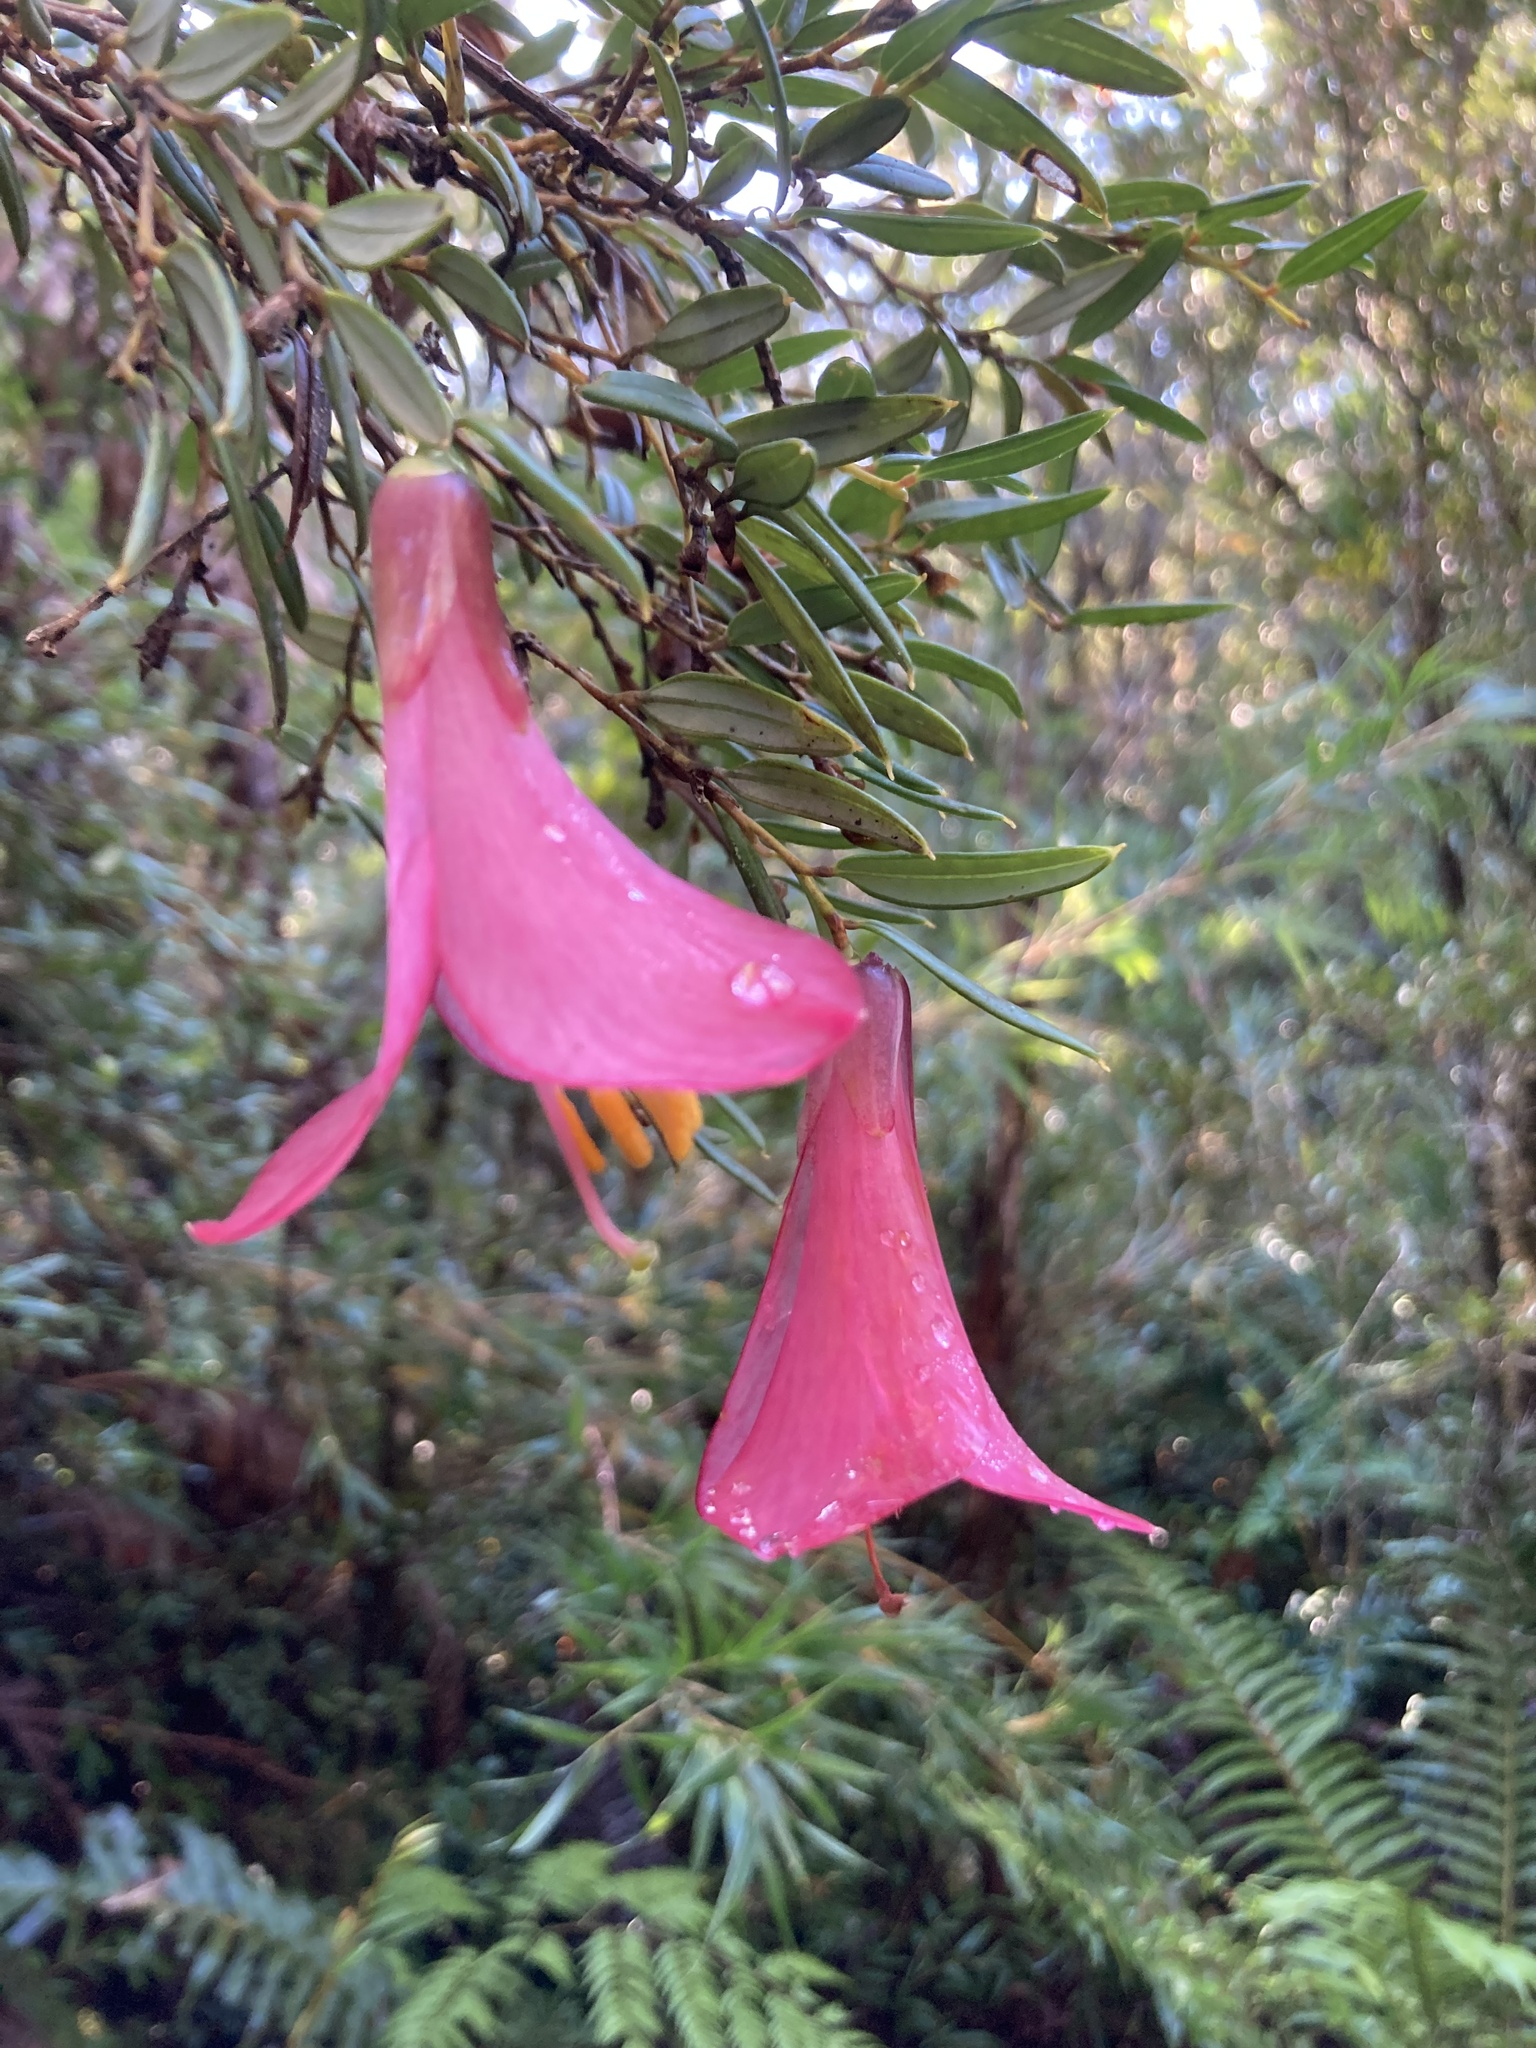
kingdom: Plantae
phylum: Tracheophyta
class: Liliopsida
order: Liliales
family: Philesiaceae
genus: Philesia
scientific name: Philesia magellanica
